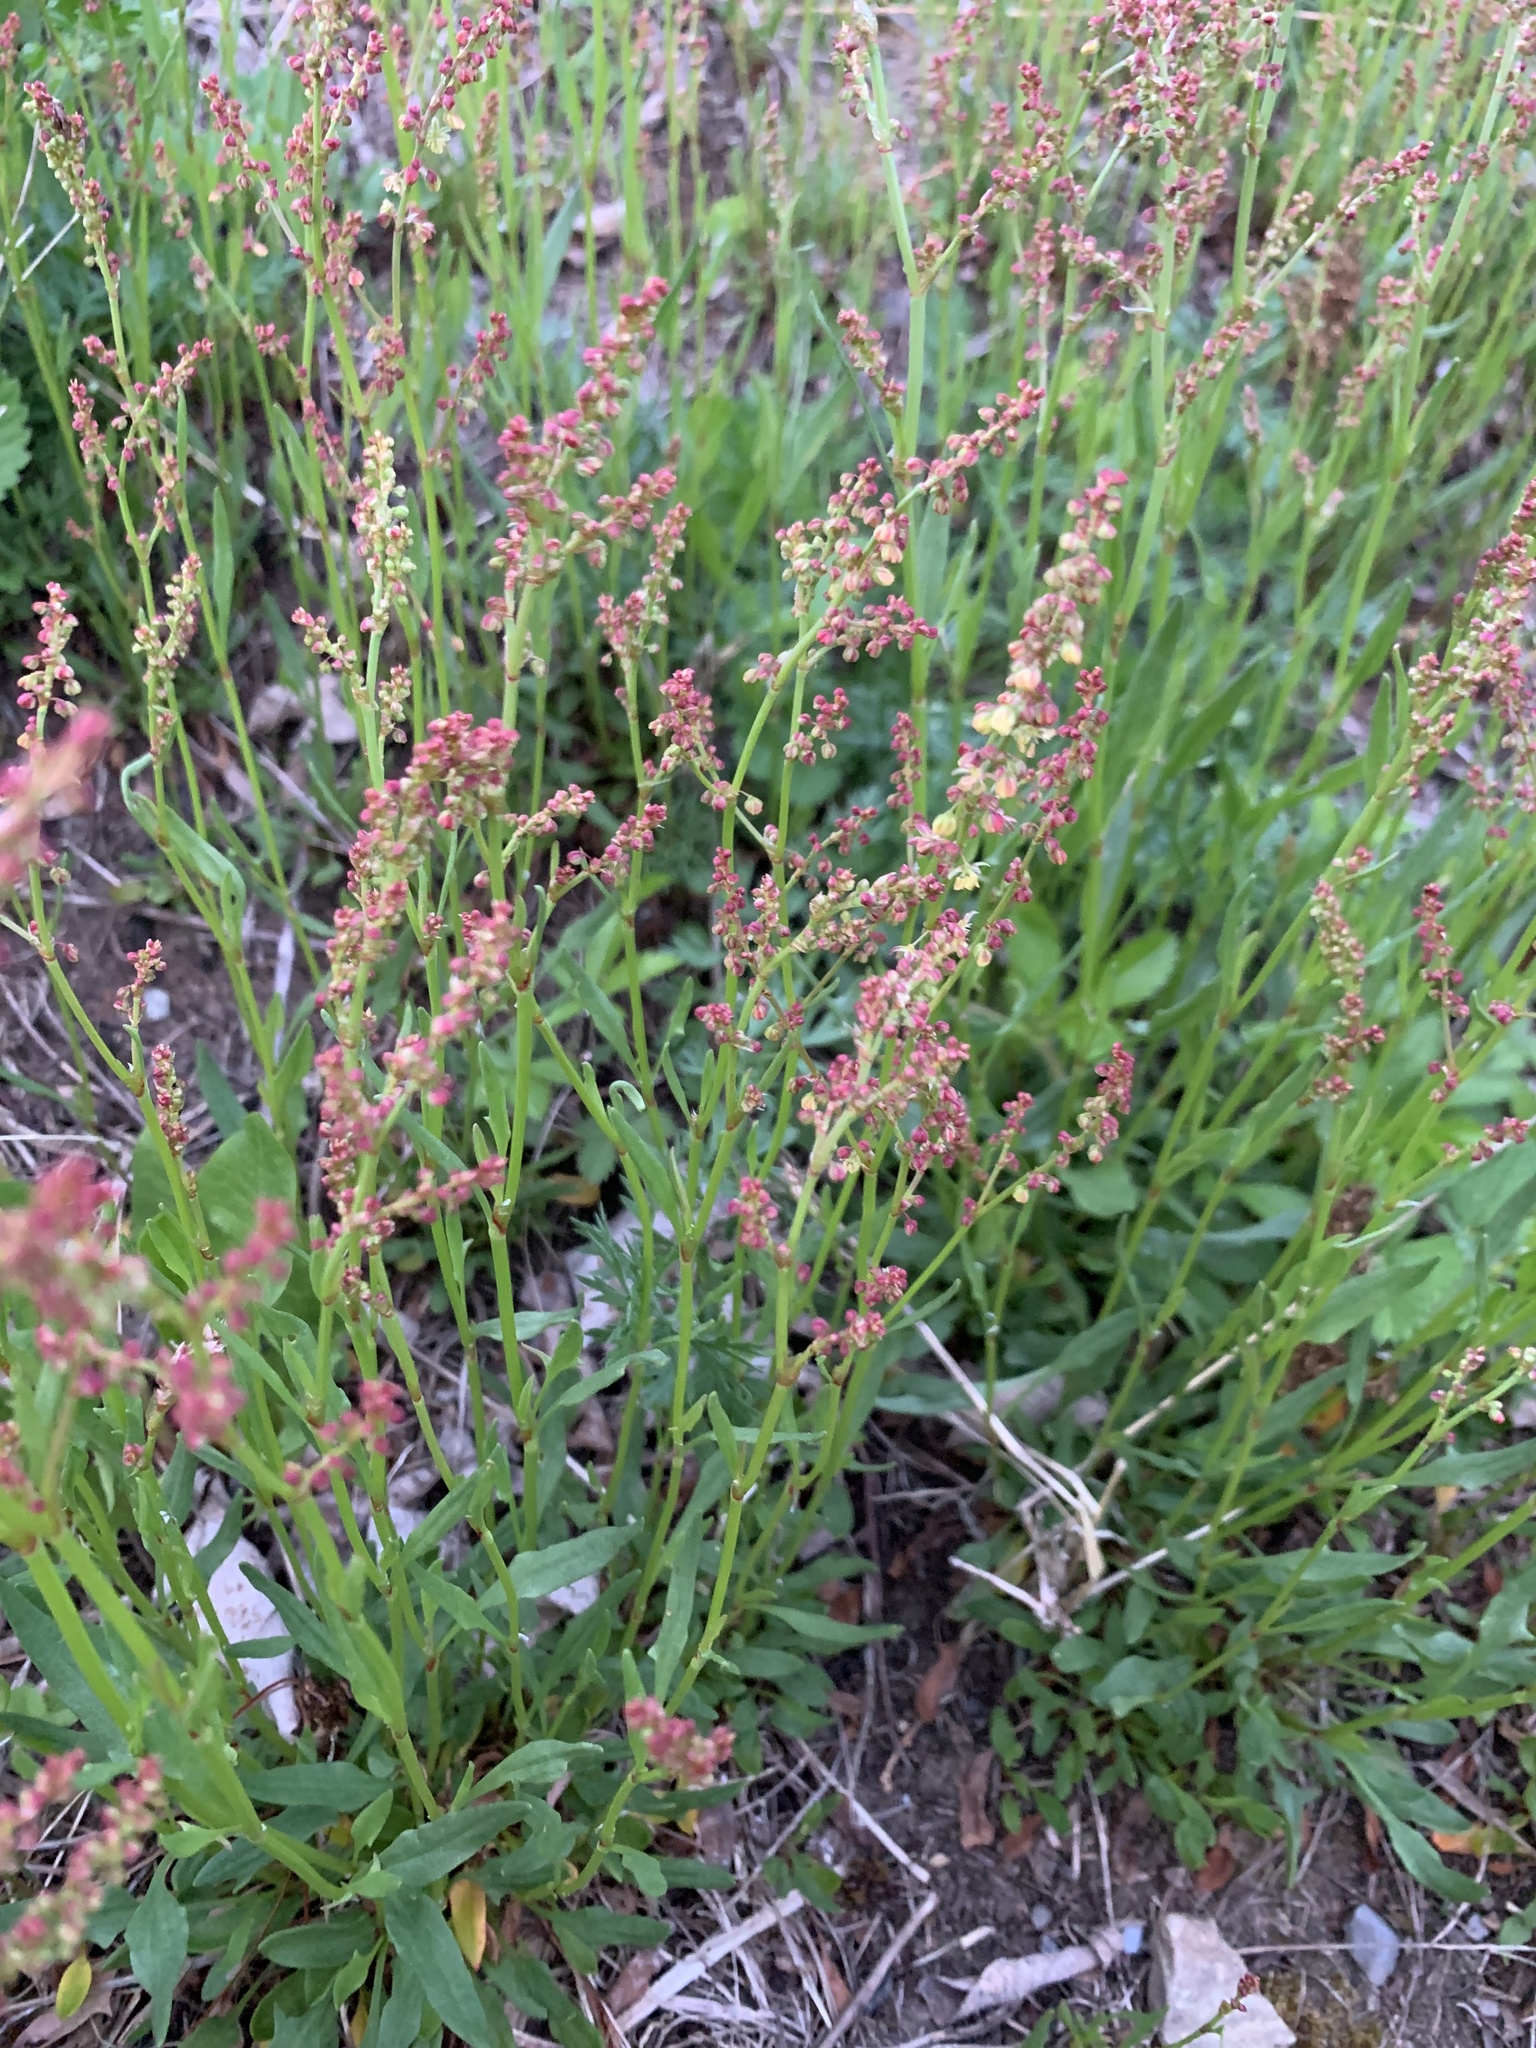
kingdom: Plantae
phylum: Tracheophyta
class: Magnoliopsida
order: Caryophyllales
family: Polygonaceae
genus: Rumex
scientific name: Rumex acetosella
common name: Common sheep sorrel
